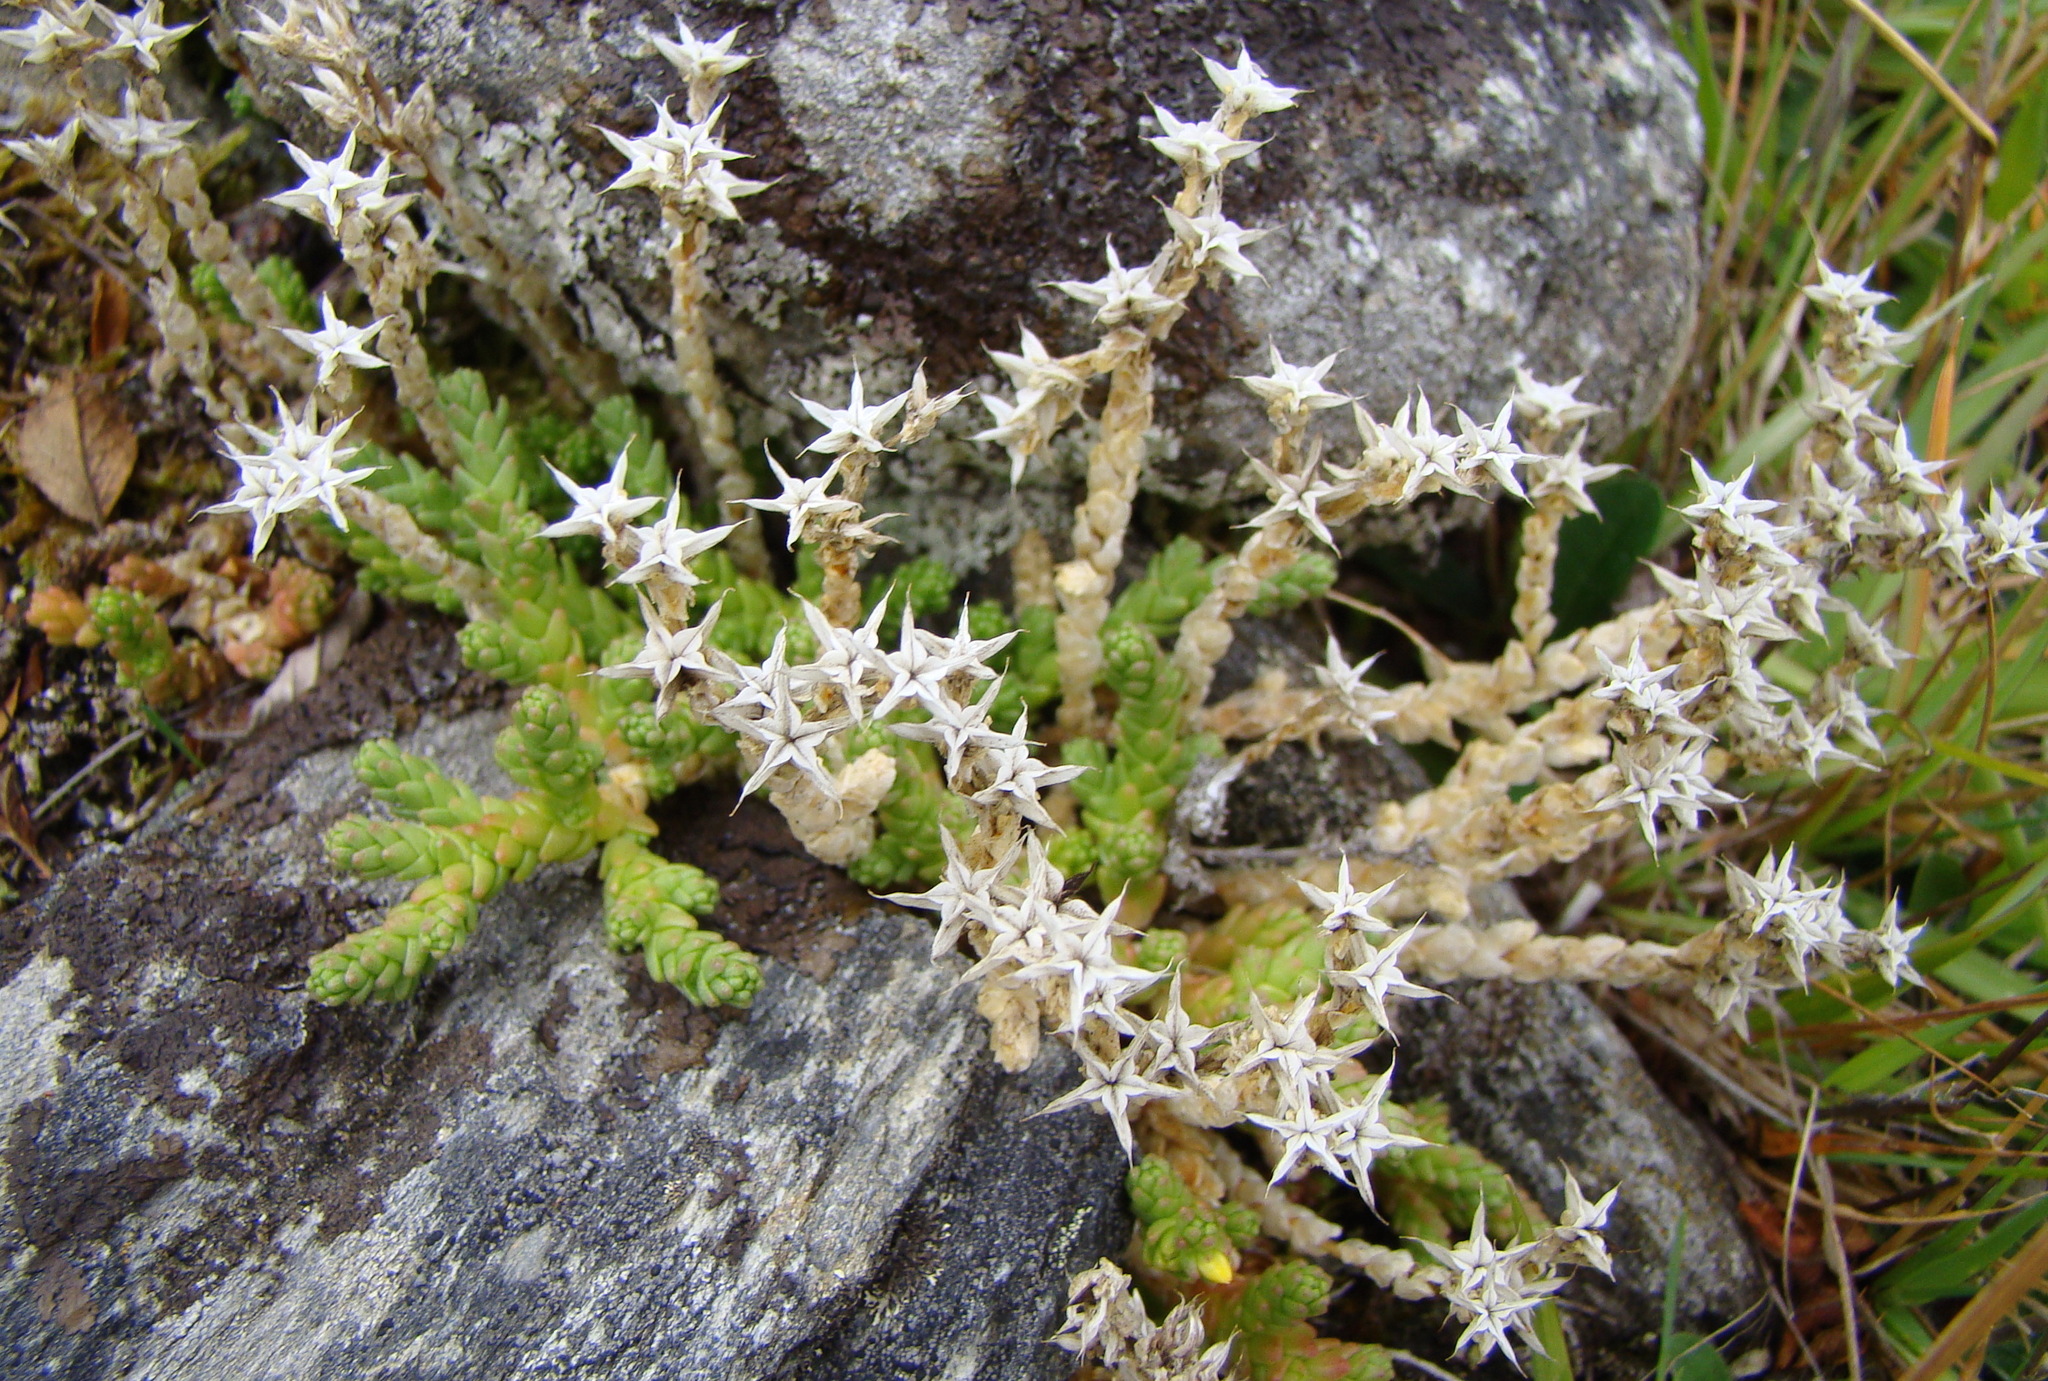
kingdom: Plantae
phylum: Tracheophyta
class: Magnoliopsida
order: Saxifragales
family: Crassulaceae
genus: Sedum
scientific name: Sedum acre
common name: Biting stonecrop
